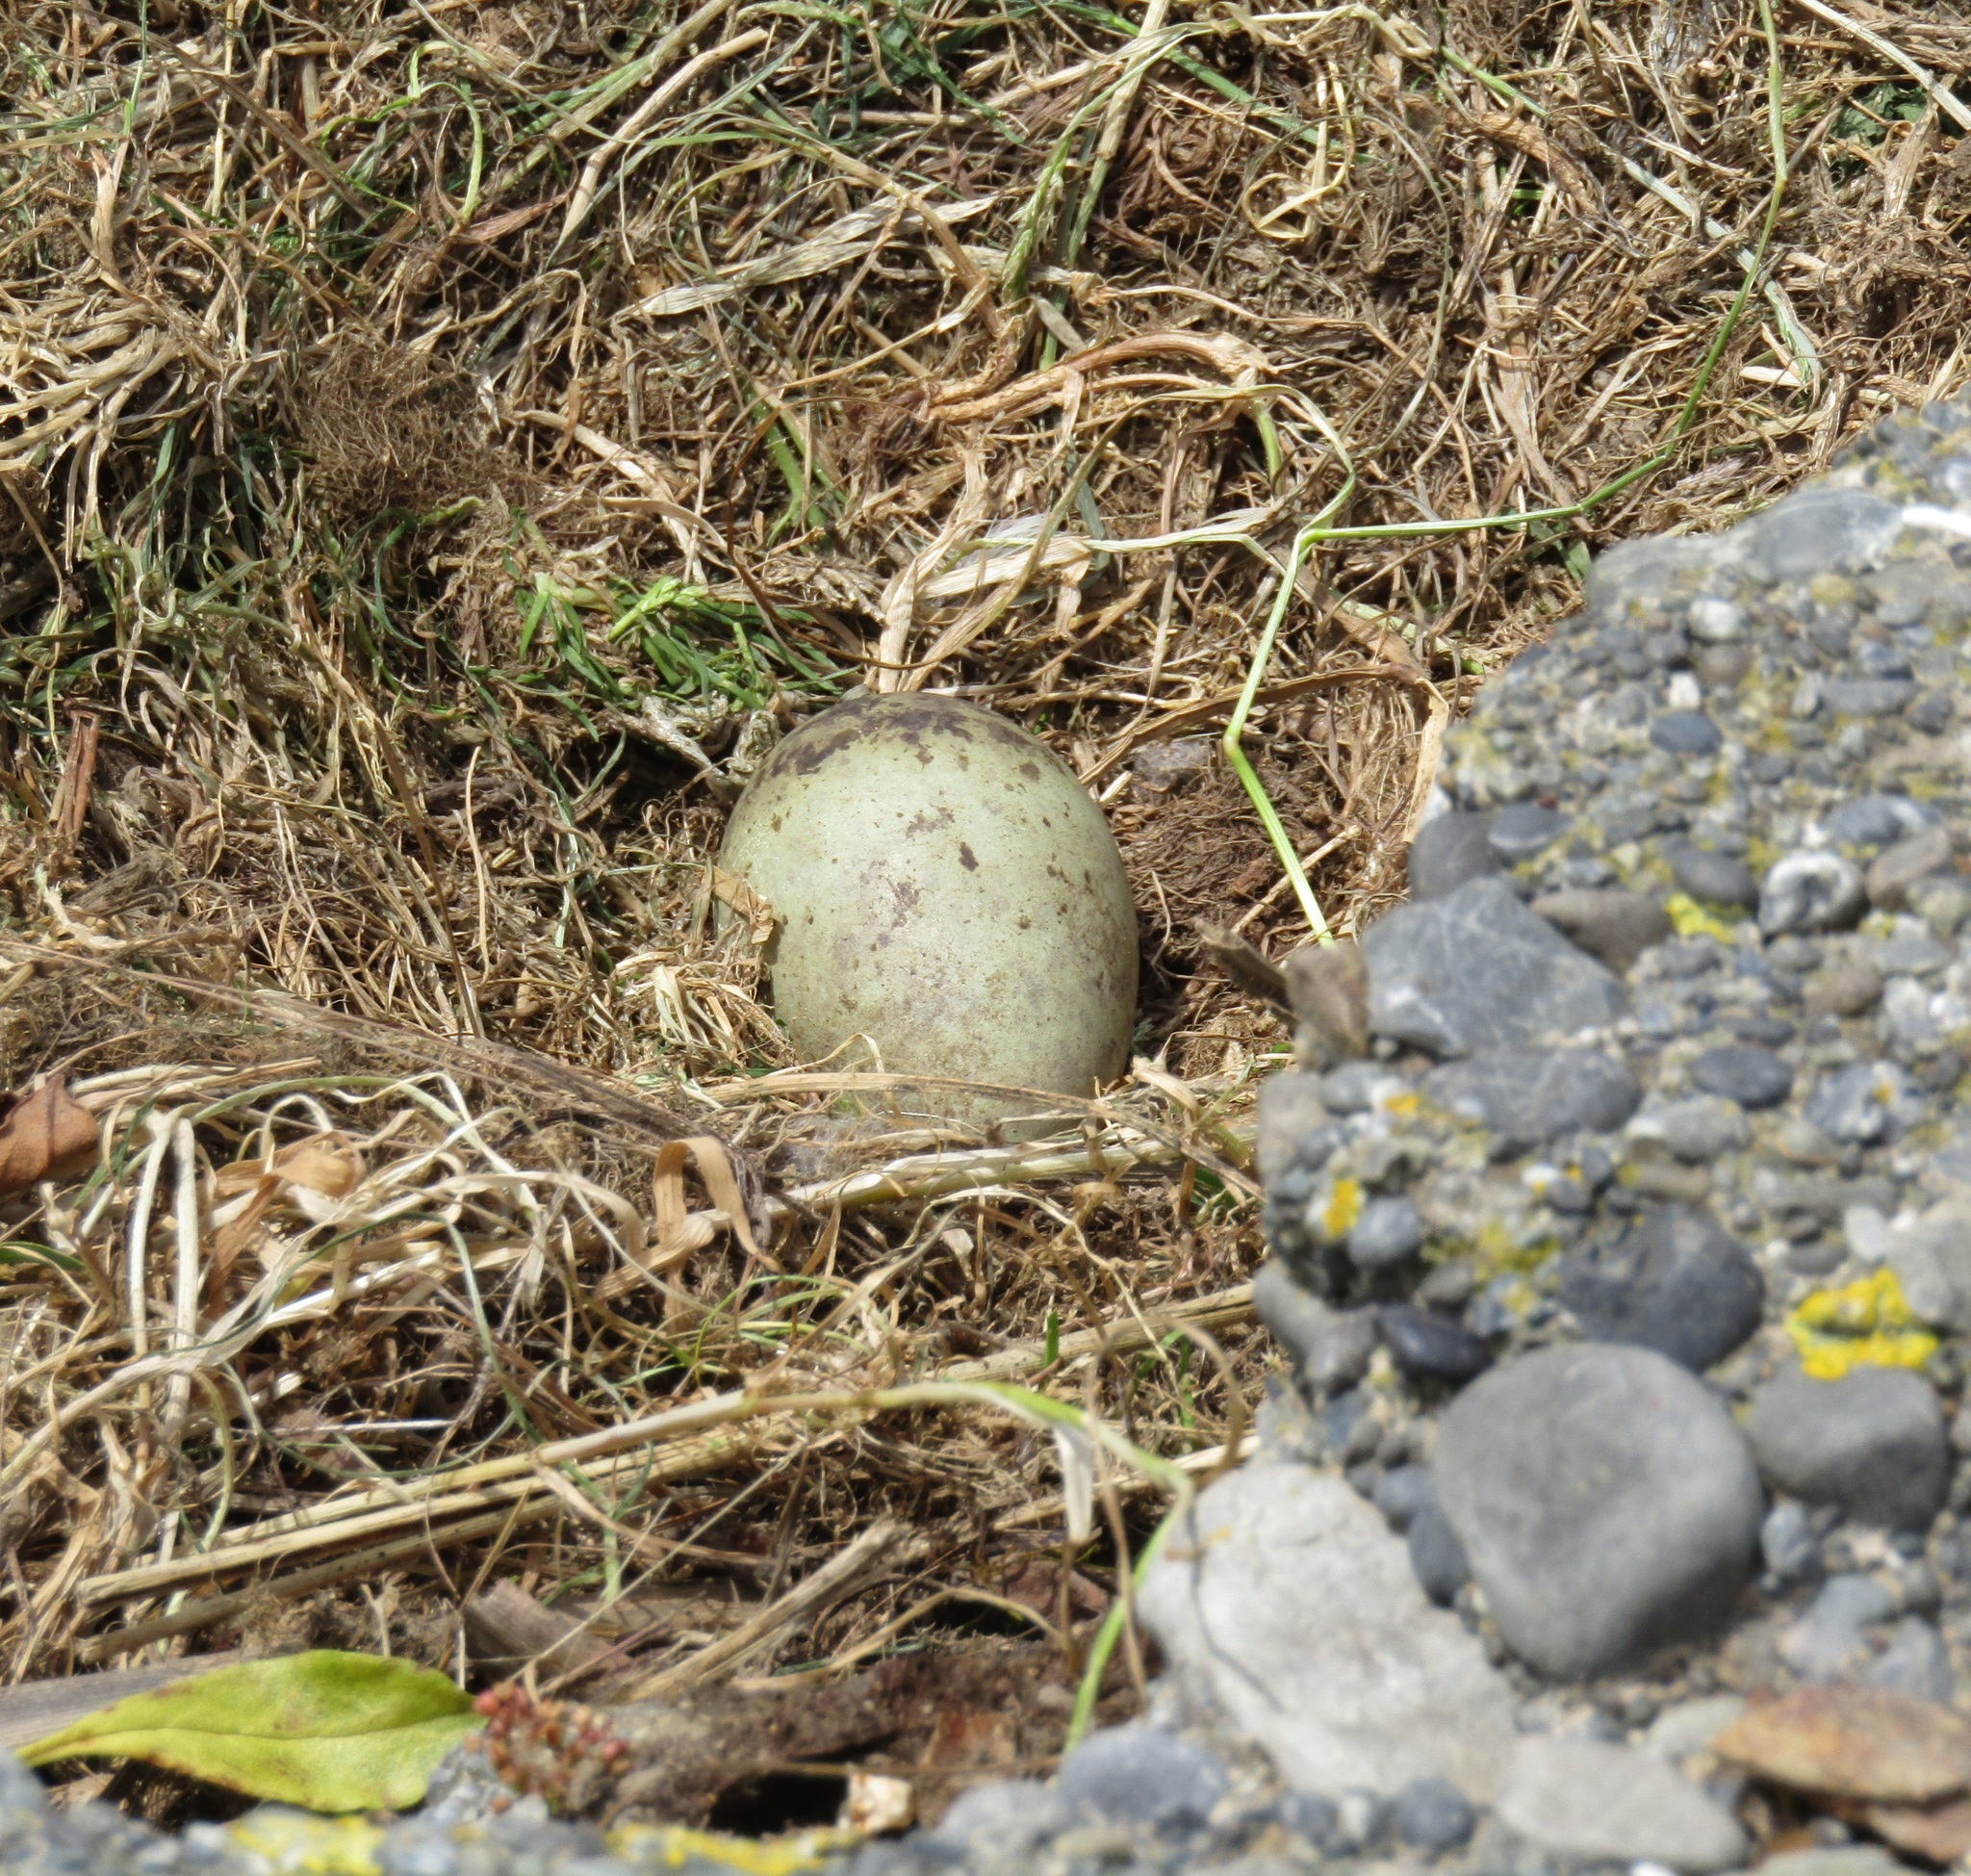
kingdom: Animalia
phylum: Chordata
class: Aves
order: Charadriiformes
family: Laridae
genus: Larus
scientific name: Larus dominicanus
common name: Kelp gull
